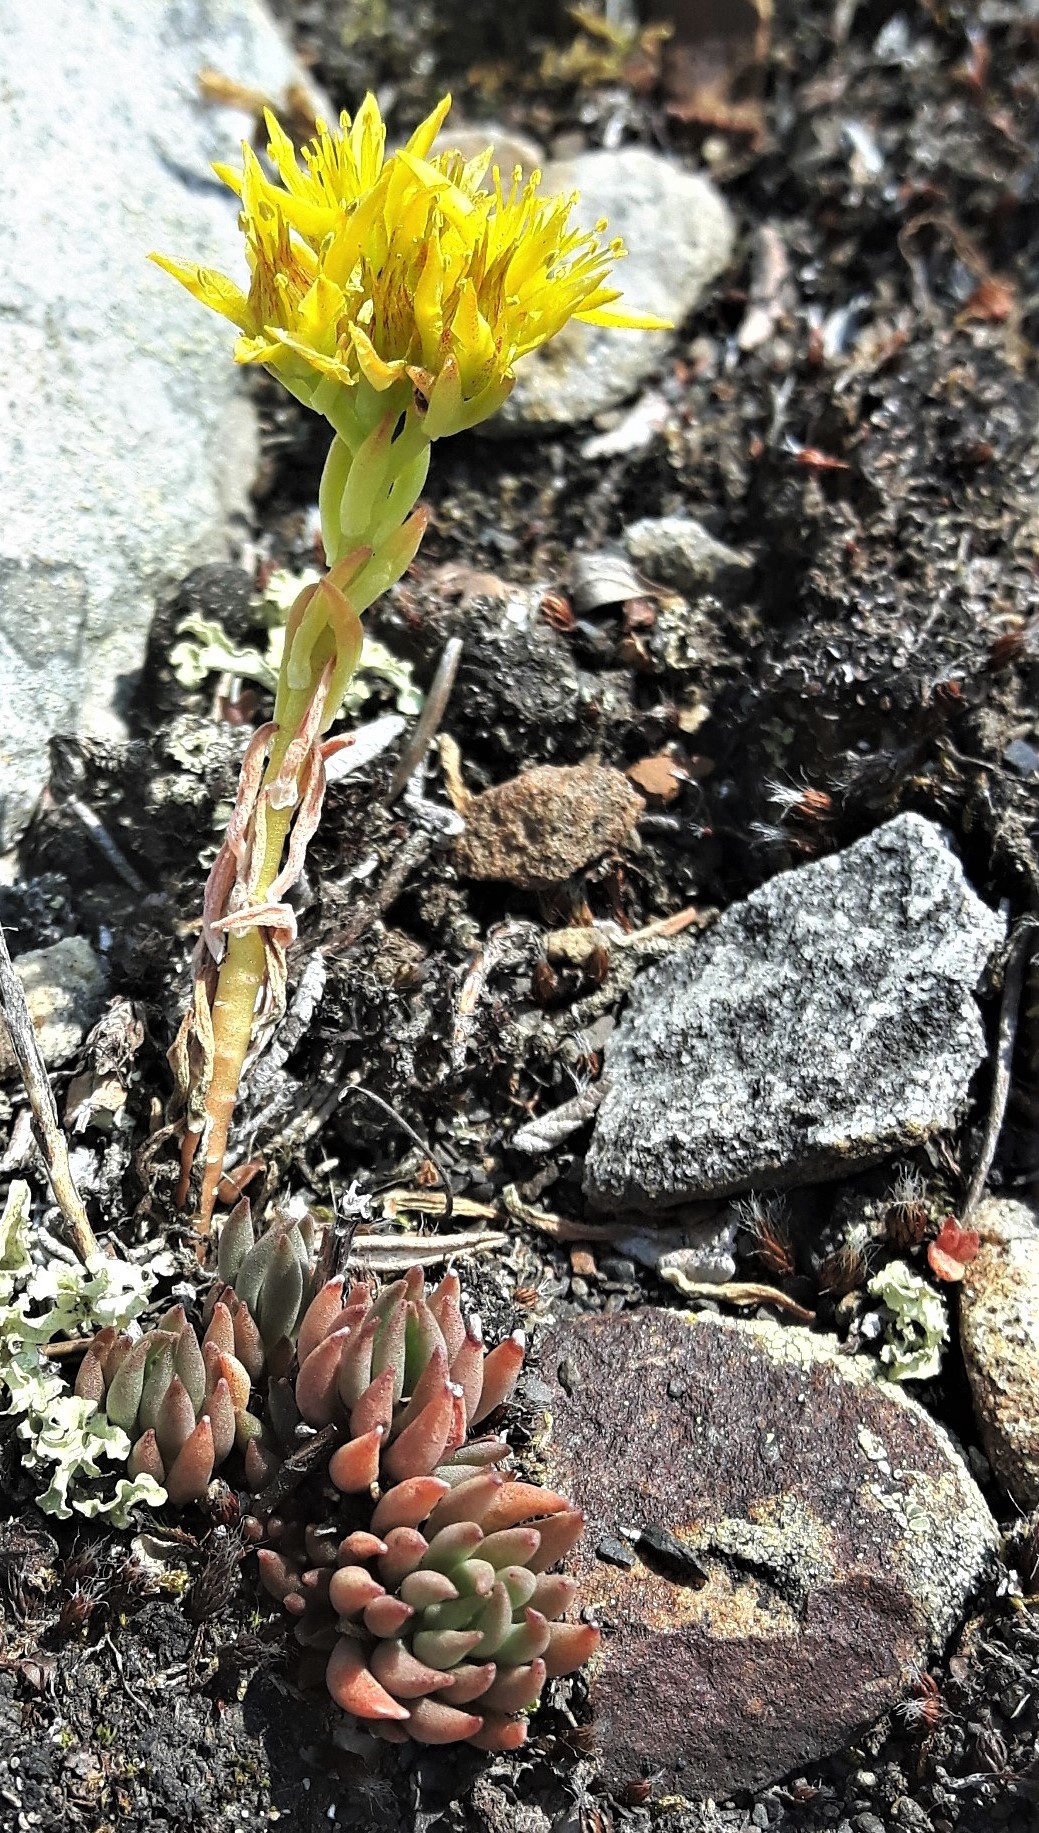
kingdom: Plantae
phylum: Tracheophyta
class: Magnoliopsida
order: Saxifragales
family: Crassulaceae
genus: Sedum
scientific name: Sedum lanceolatum
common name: Common stonecrop
